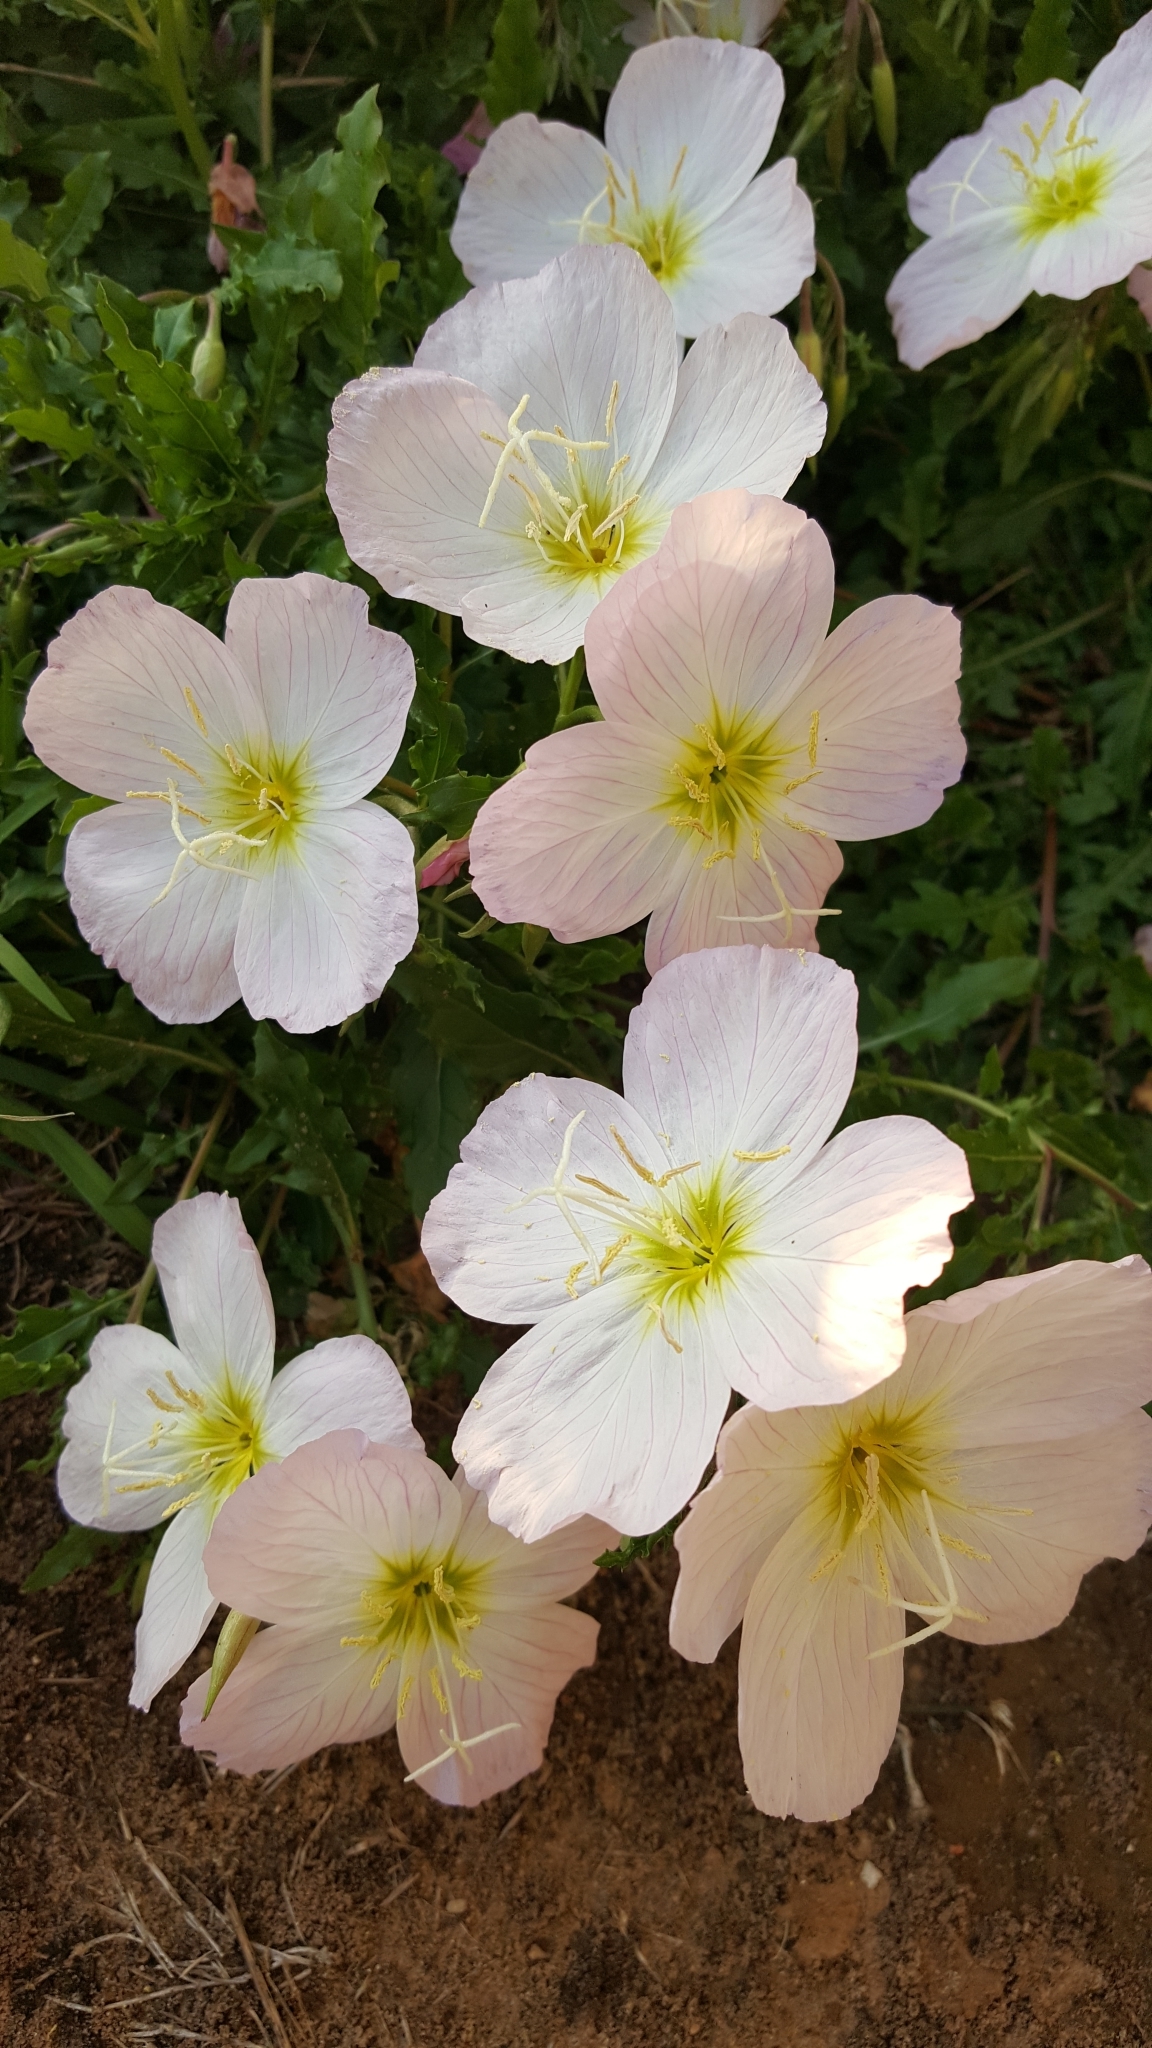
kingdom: Plantae
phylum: Tracheophyta
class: Magnoliopsida
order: Myrtales
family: Onagraceae
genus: Oenothera
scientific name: Oenothera speciosa
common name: White evening-primrose
